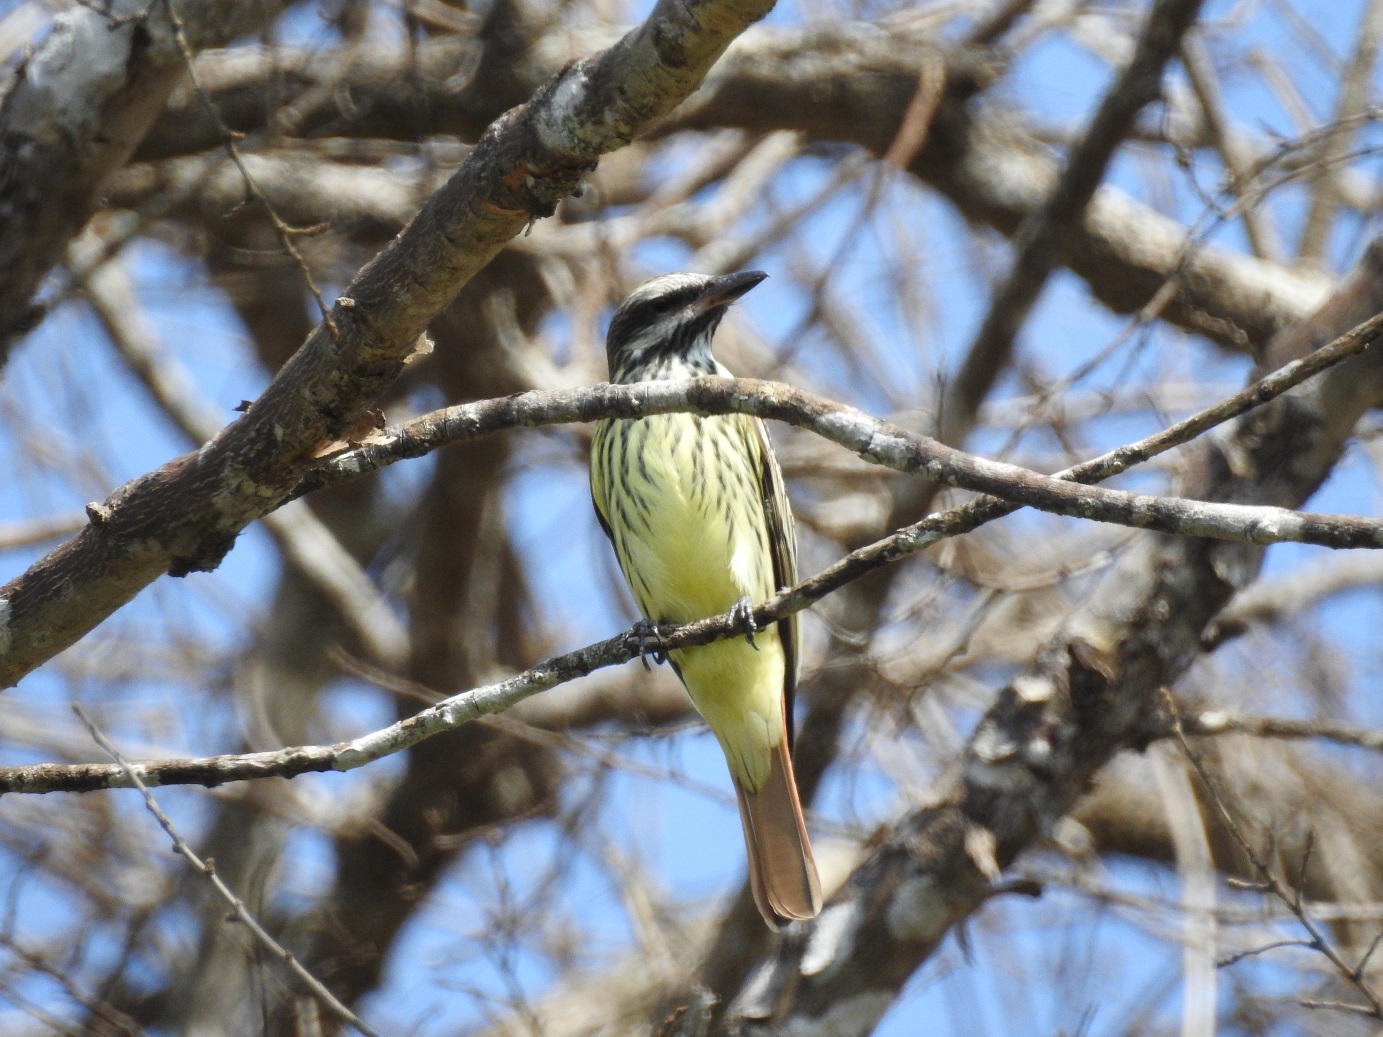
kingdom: Animalia
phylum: Chordata
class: Aves
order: Passeriformes
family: Tyrannidae
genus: Myiodynastes
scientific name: Myiodynastes luteiventris
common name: Sulphur-bellied flycatcher
